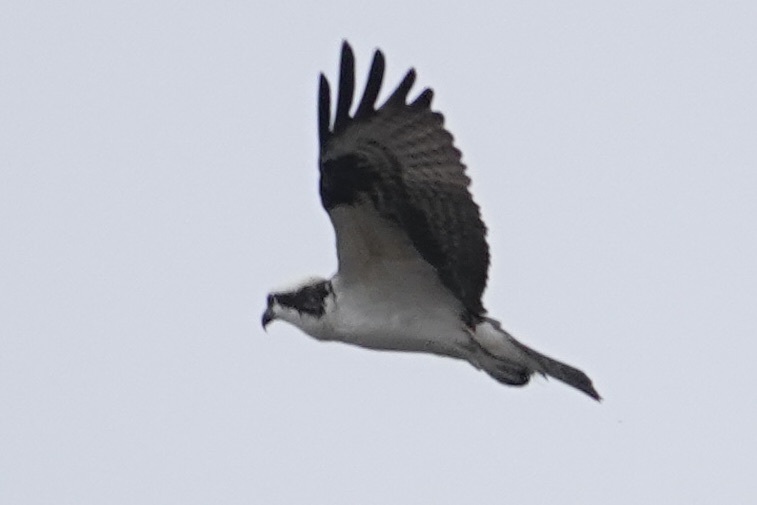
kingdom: Animalia
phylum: Chordata
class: Aves
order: Accipitriformes
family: Pandionidae
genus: Pandion
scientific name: Pandion haliaetus
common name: Osprey
